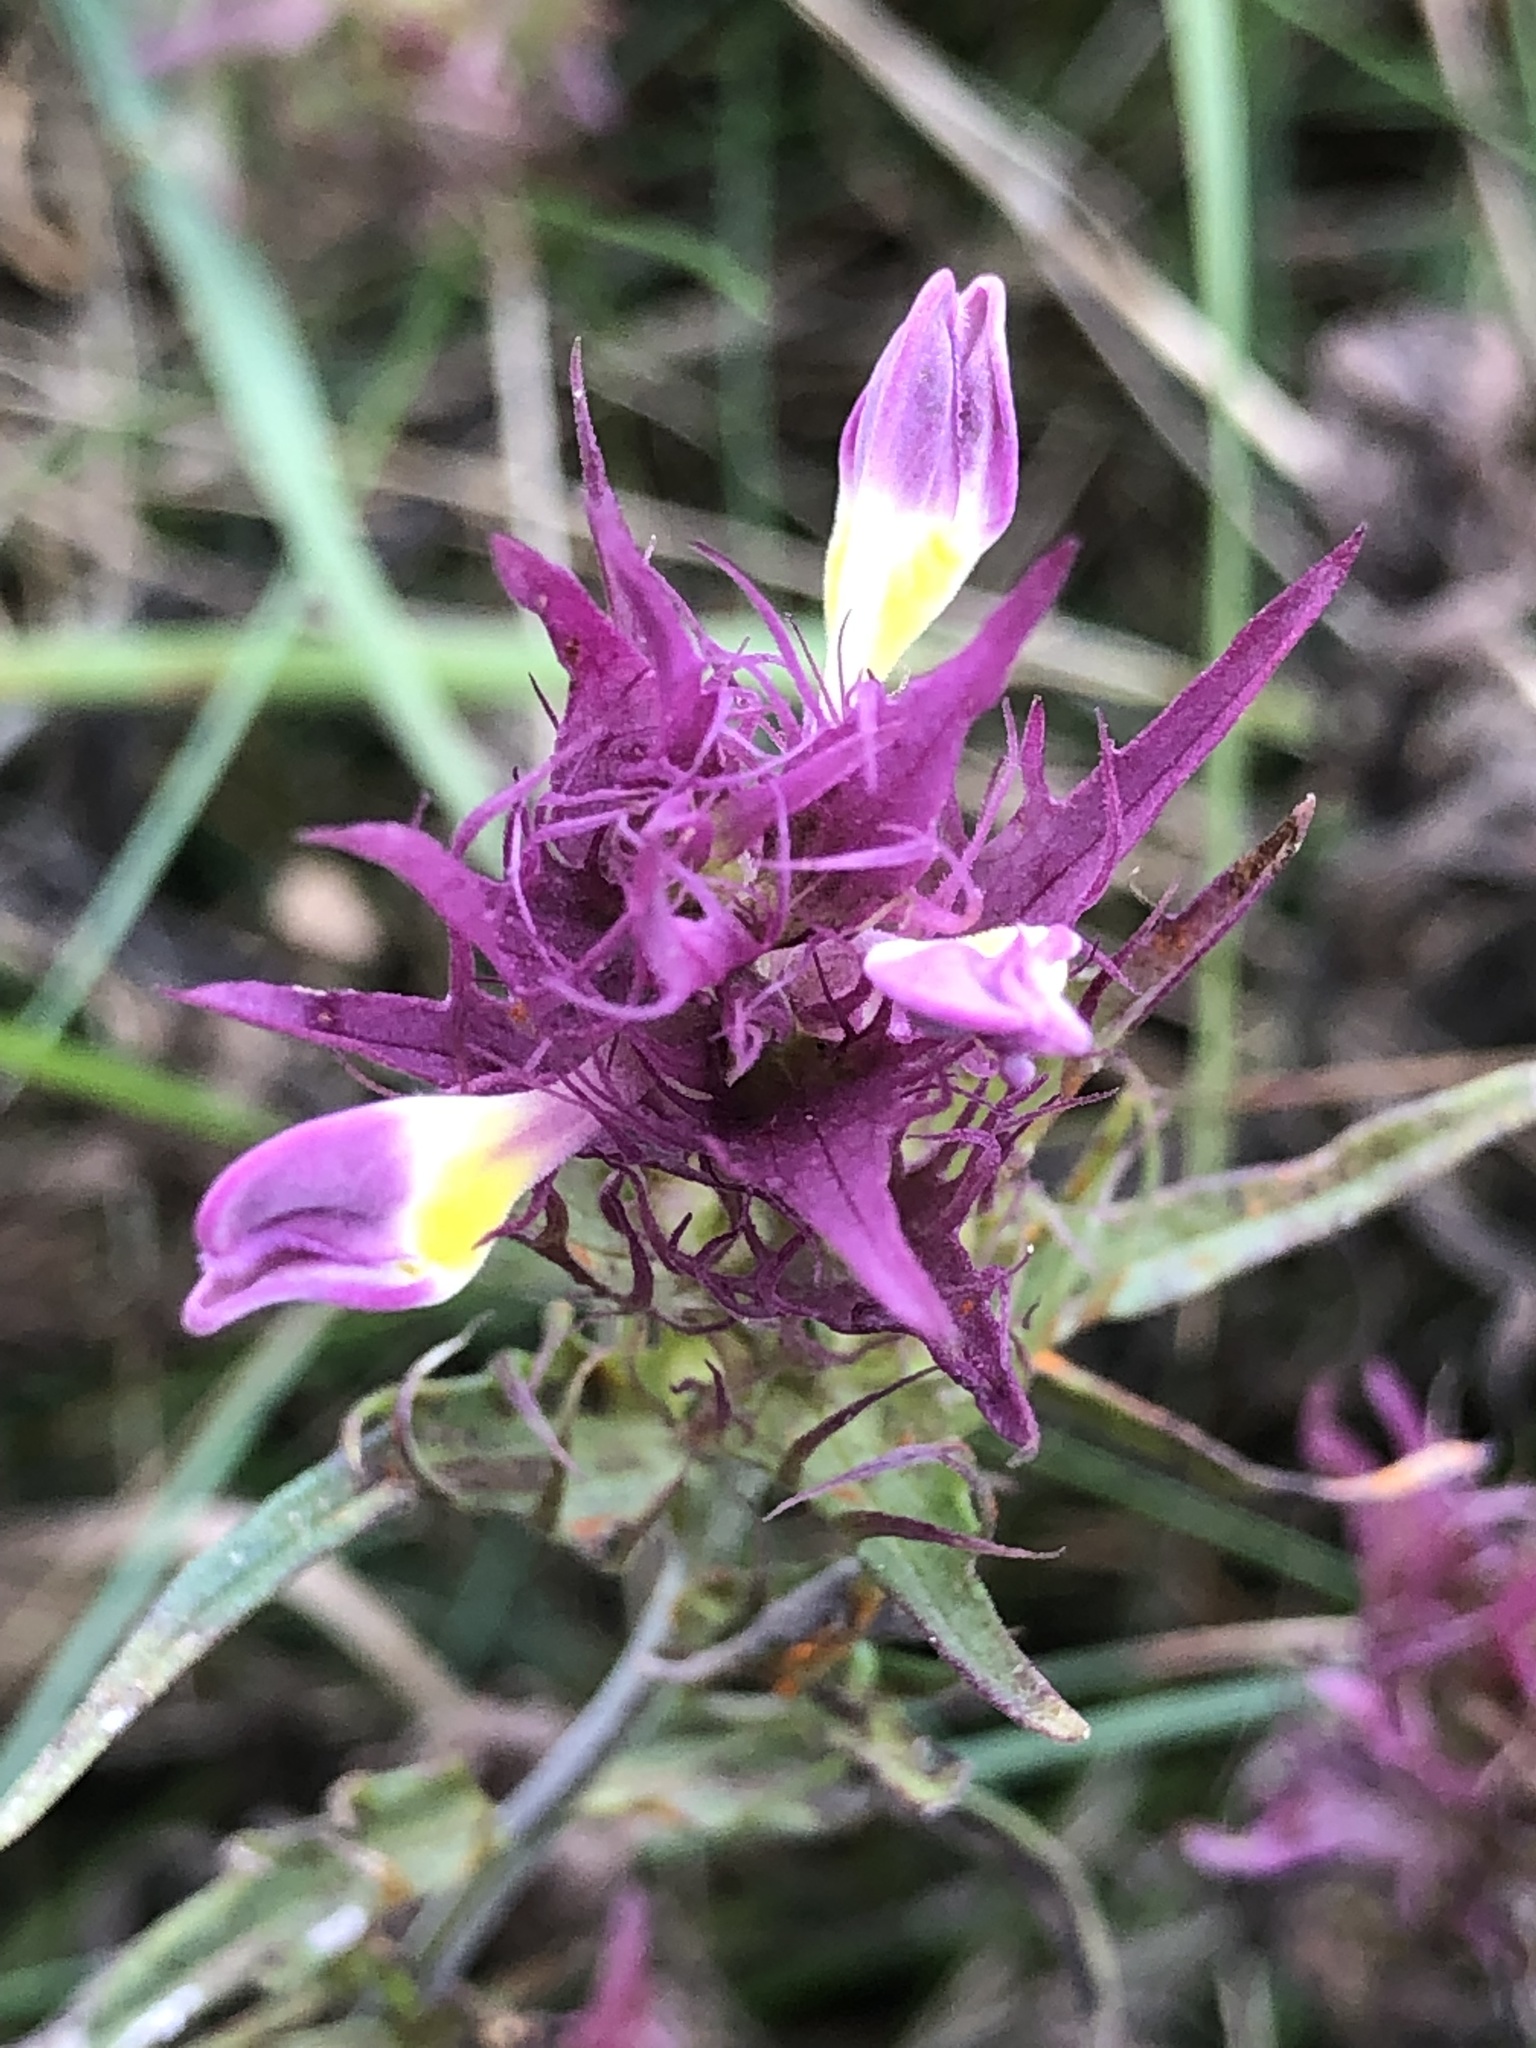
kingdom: Plantae
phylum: Tracheophyta
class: Magnoliopsida
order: Lamiales
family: Orobanchaceae
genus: Melampyrum
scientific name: Melampyrum arvense
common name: Field cow-wheat
